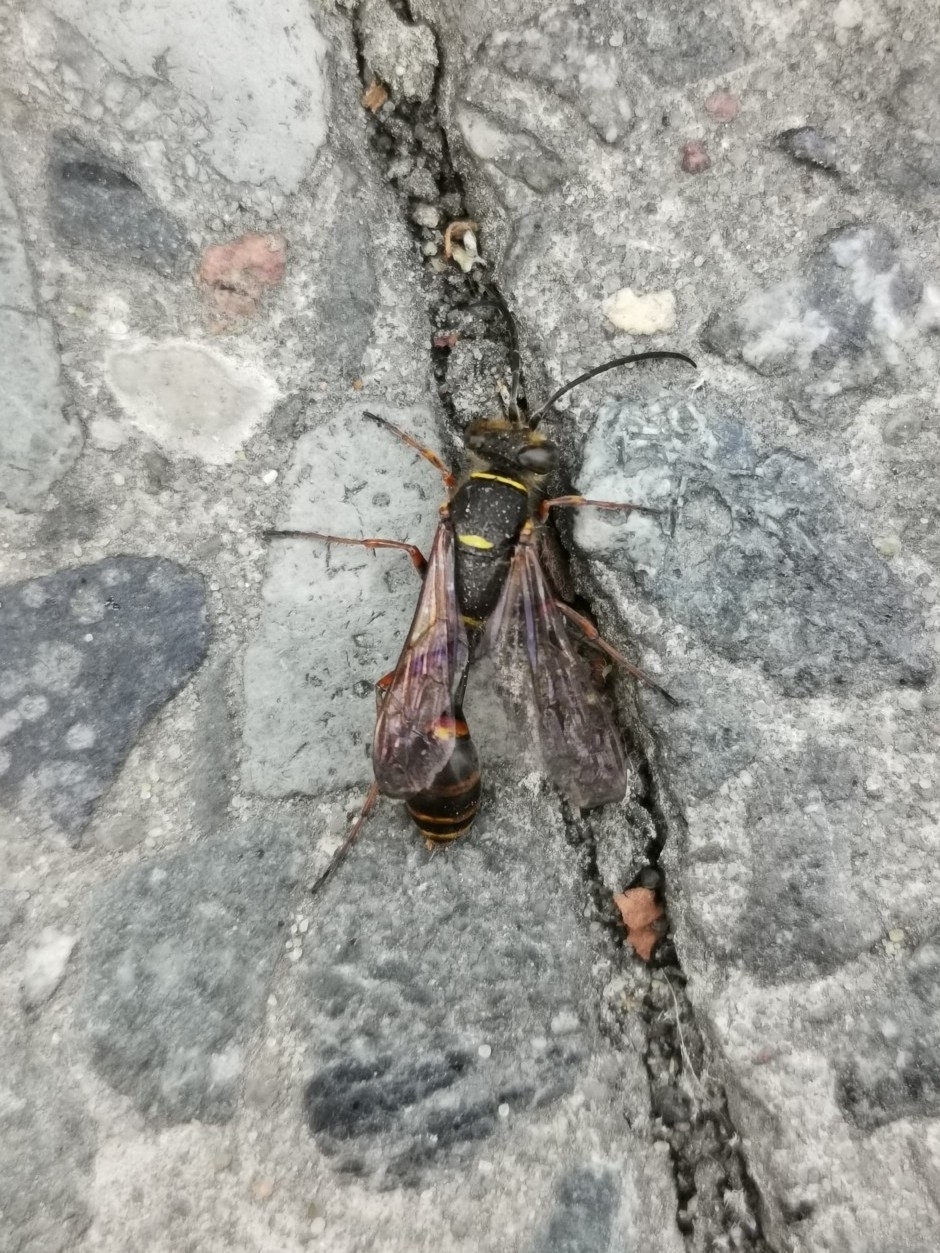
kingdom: Animalia
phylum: Arthropoda
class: Insecta
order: Hymenoptera
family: Sphecidae
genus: Sceliphron
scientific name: Sceliphron curvatum
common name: Pèlopèe
